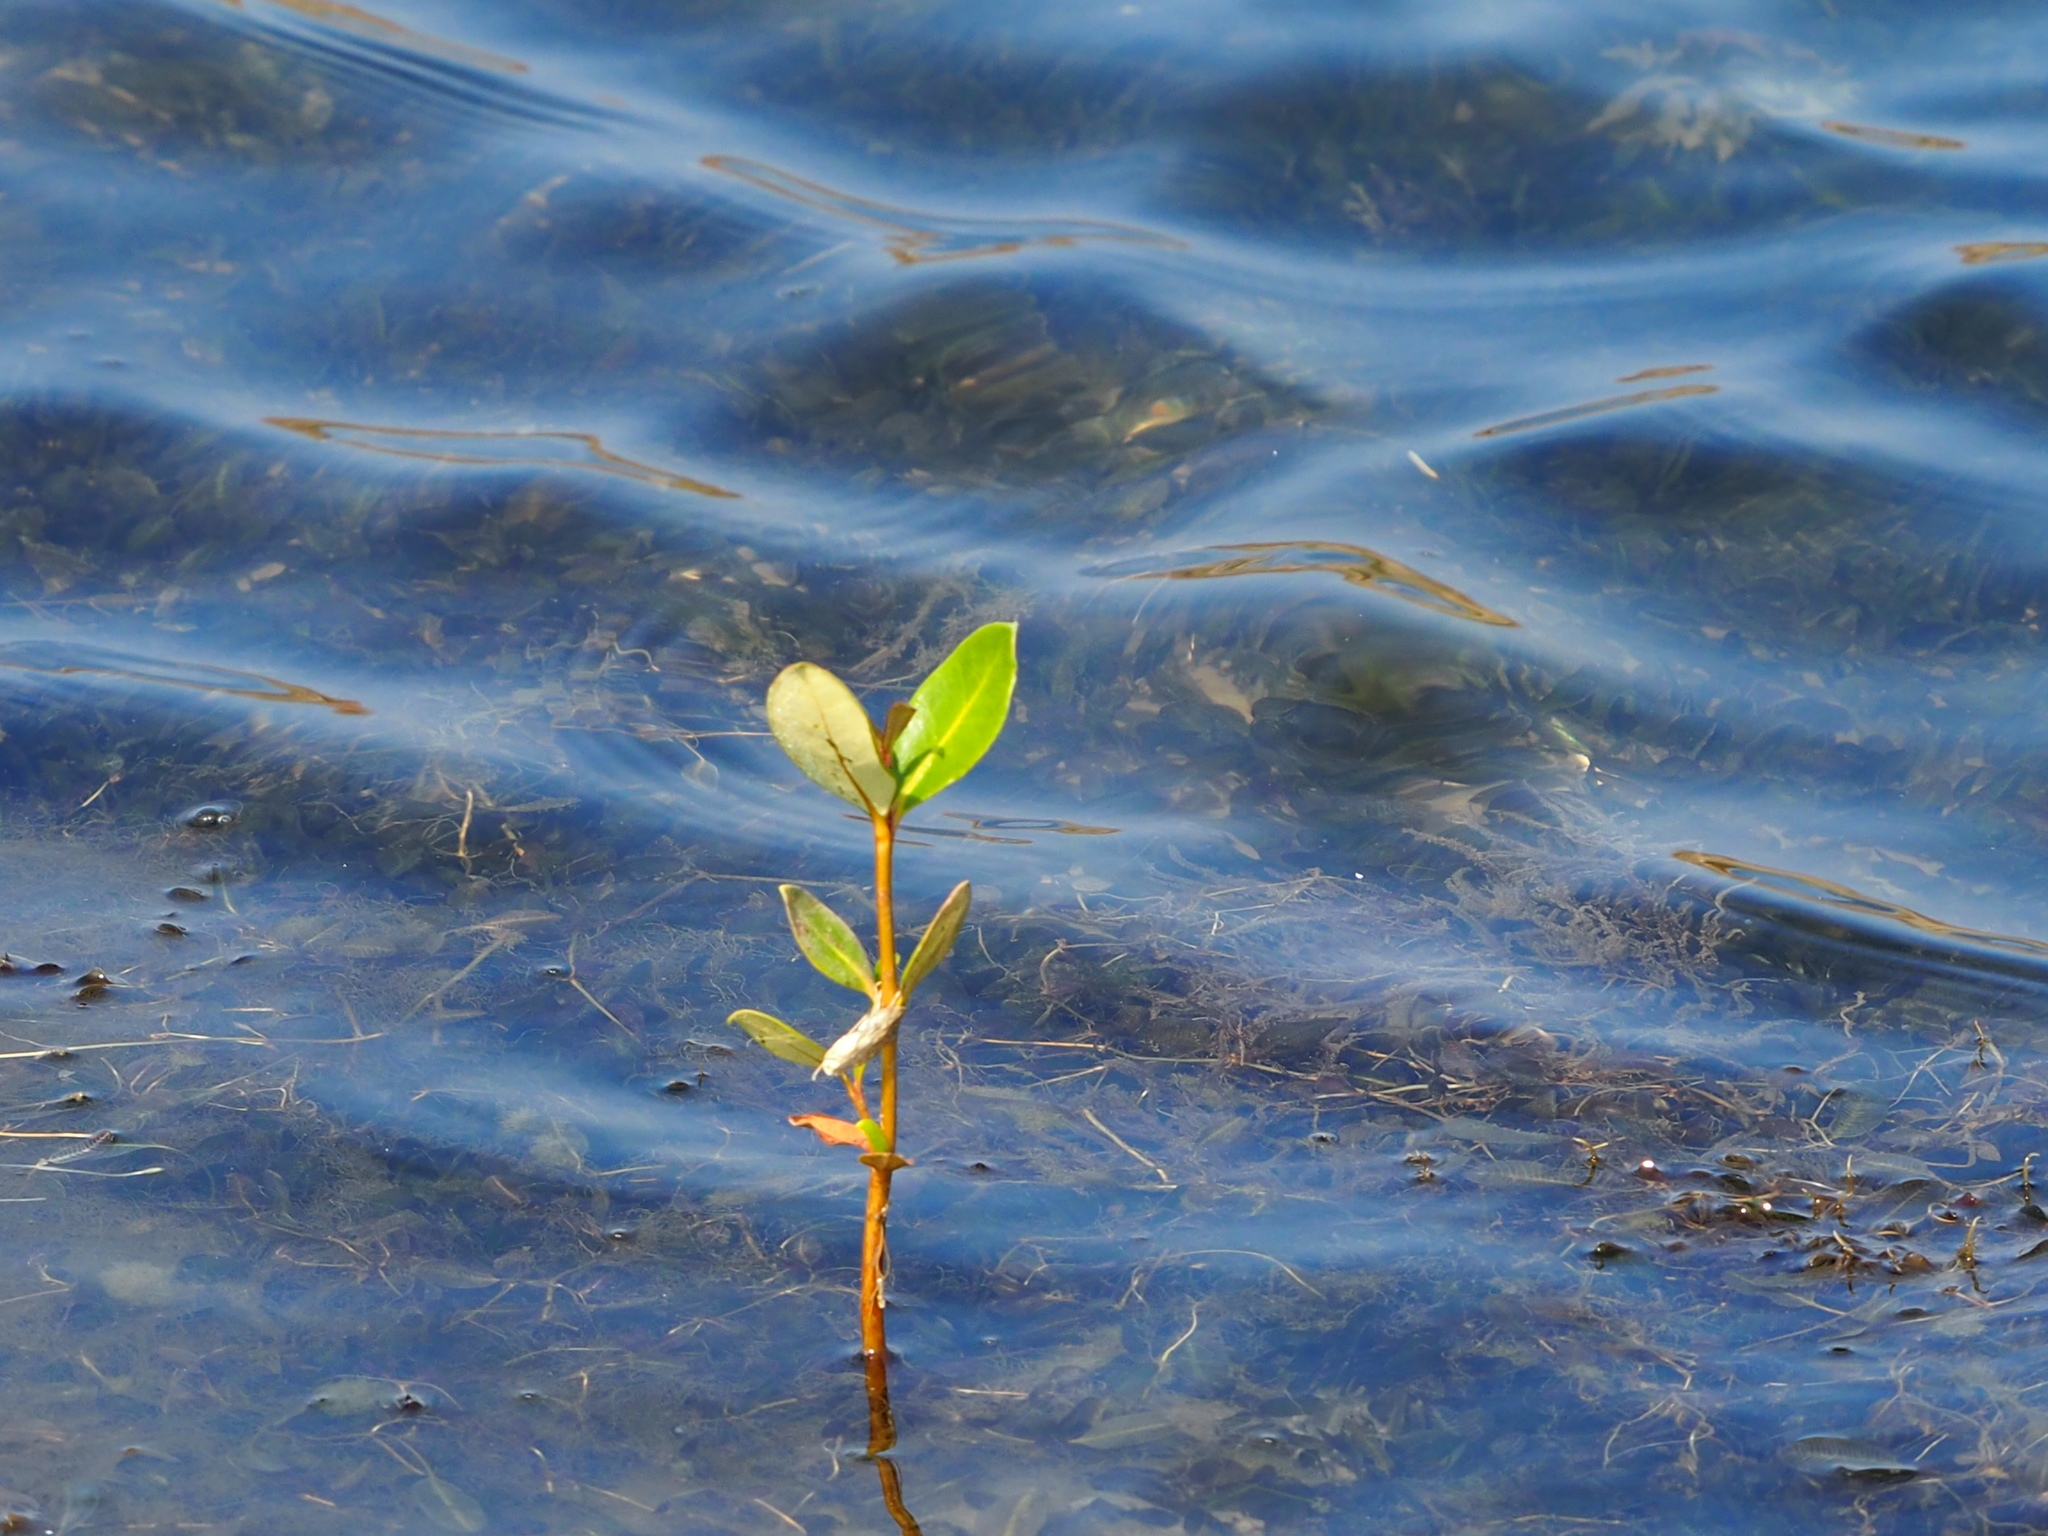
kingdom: Plantae
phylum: Tracheophyta
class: Magnoliopsida
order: Lamiales
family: Acanthaceae
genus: Avicennia
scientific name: Avicennia marina
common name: Gray mangrove
